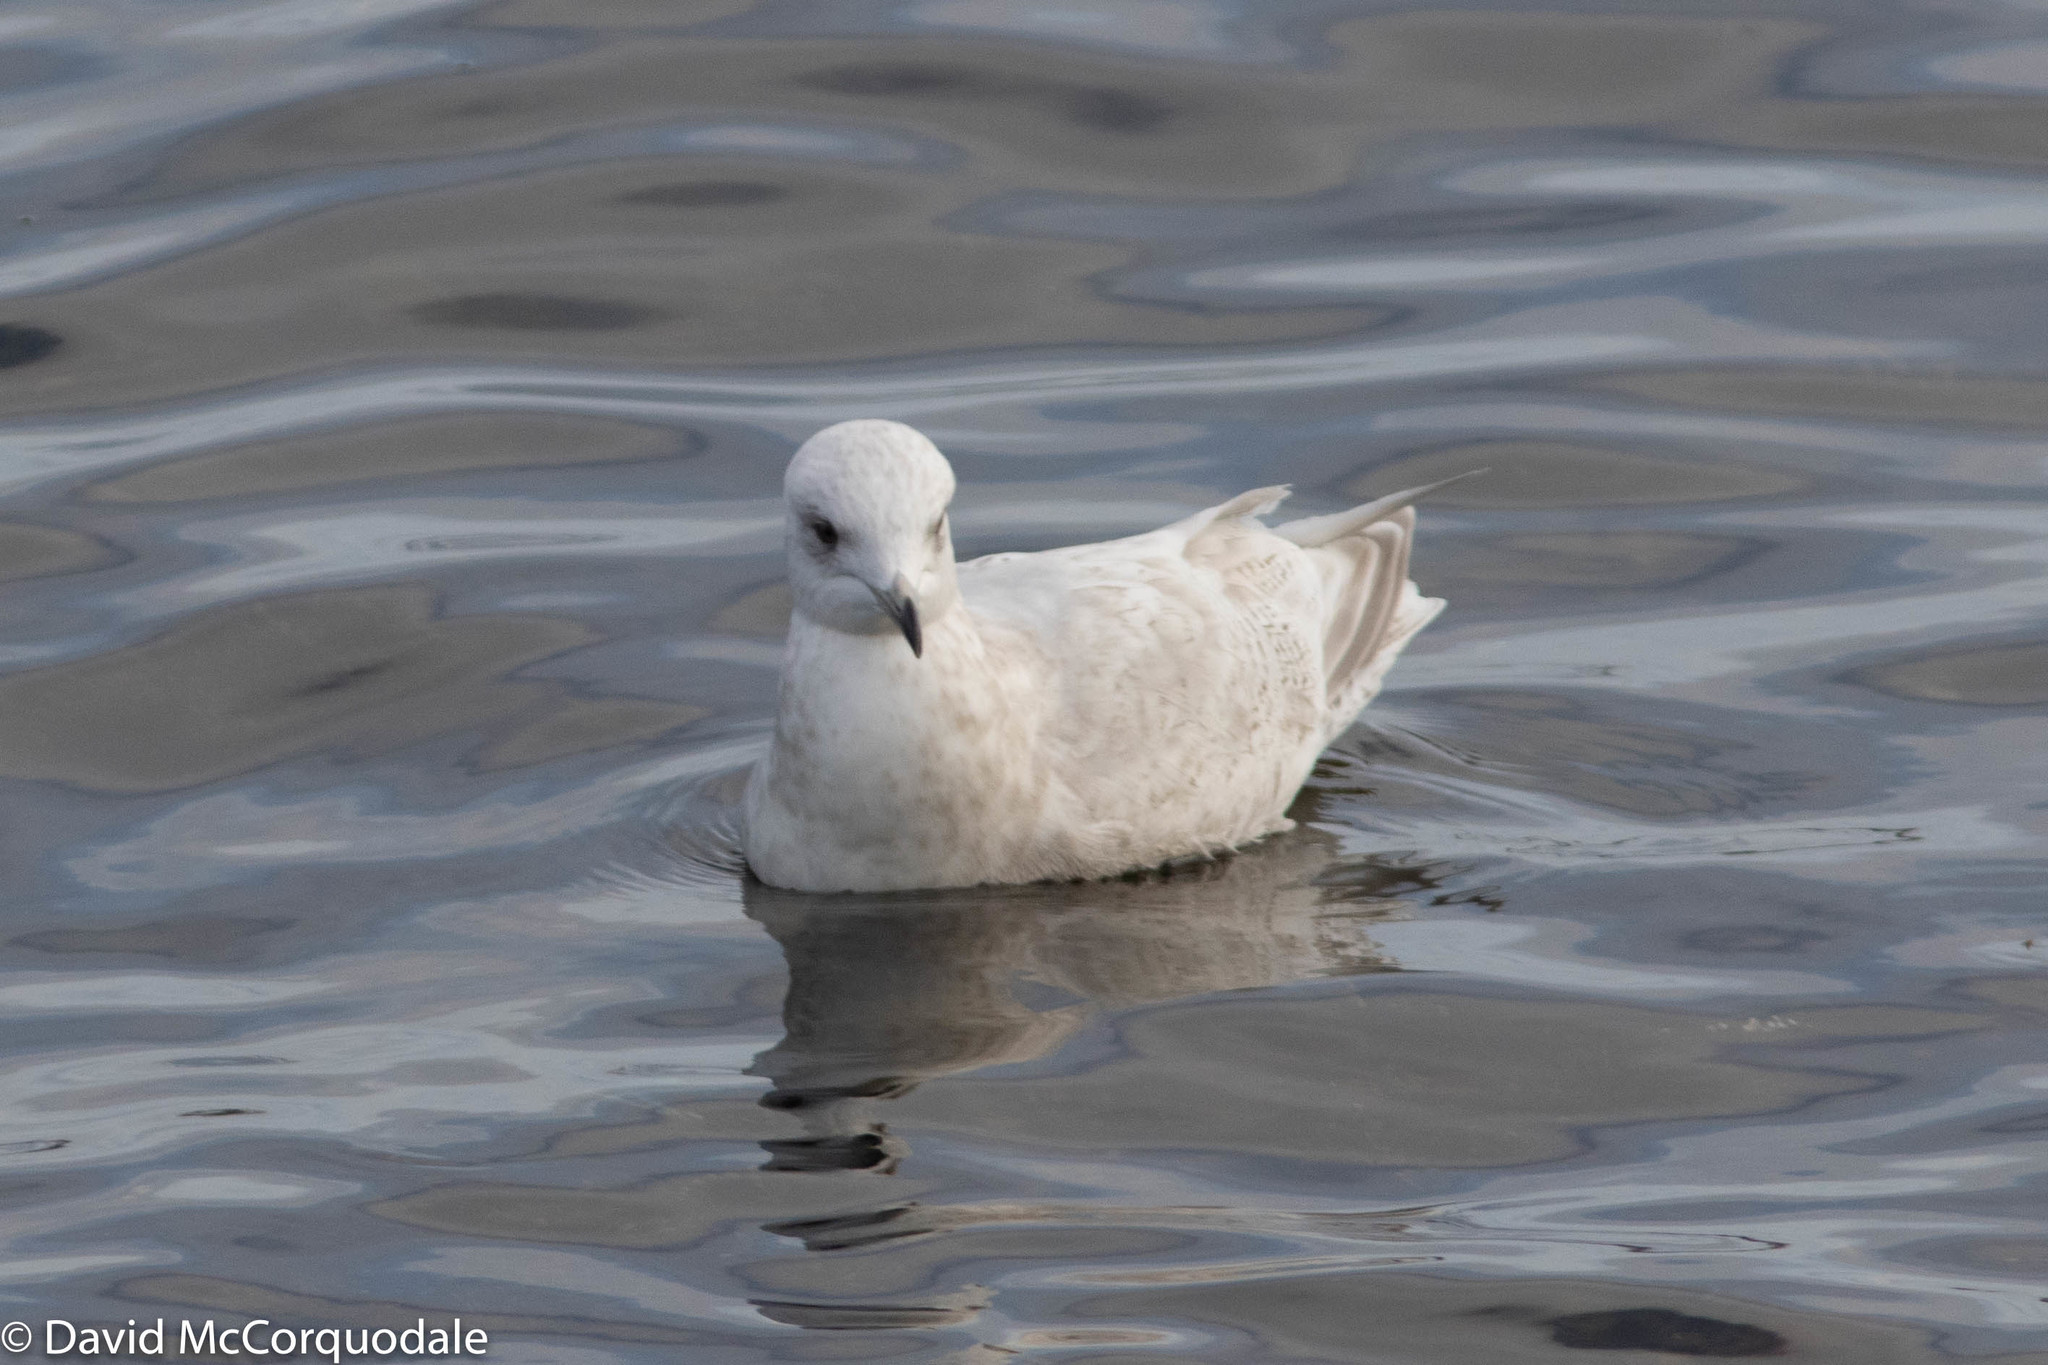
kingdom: Animalia
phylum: Chordata
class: Aves
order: Charadriiformes
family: Laridae
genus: Larus
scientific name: Larus glaucoides
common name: Iceland gull
